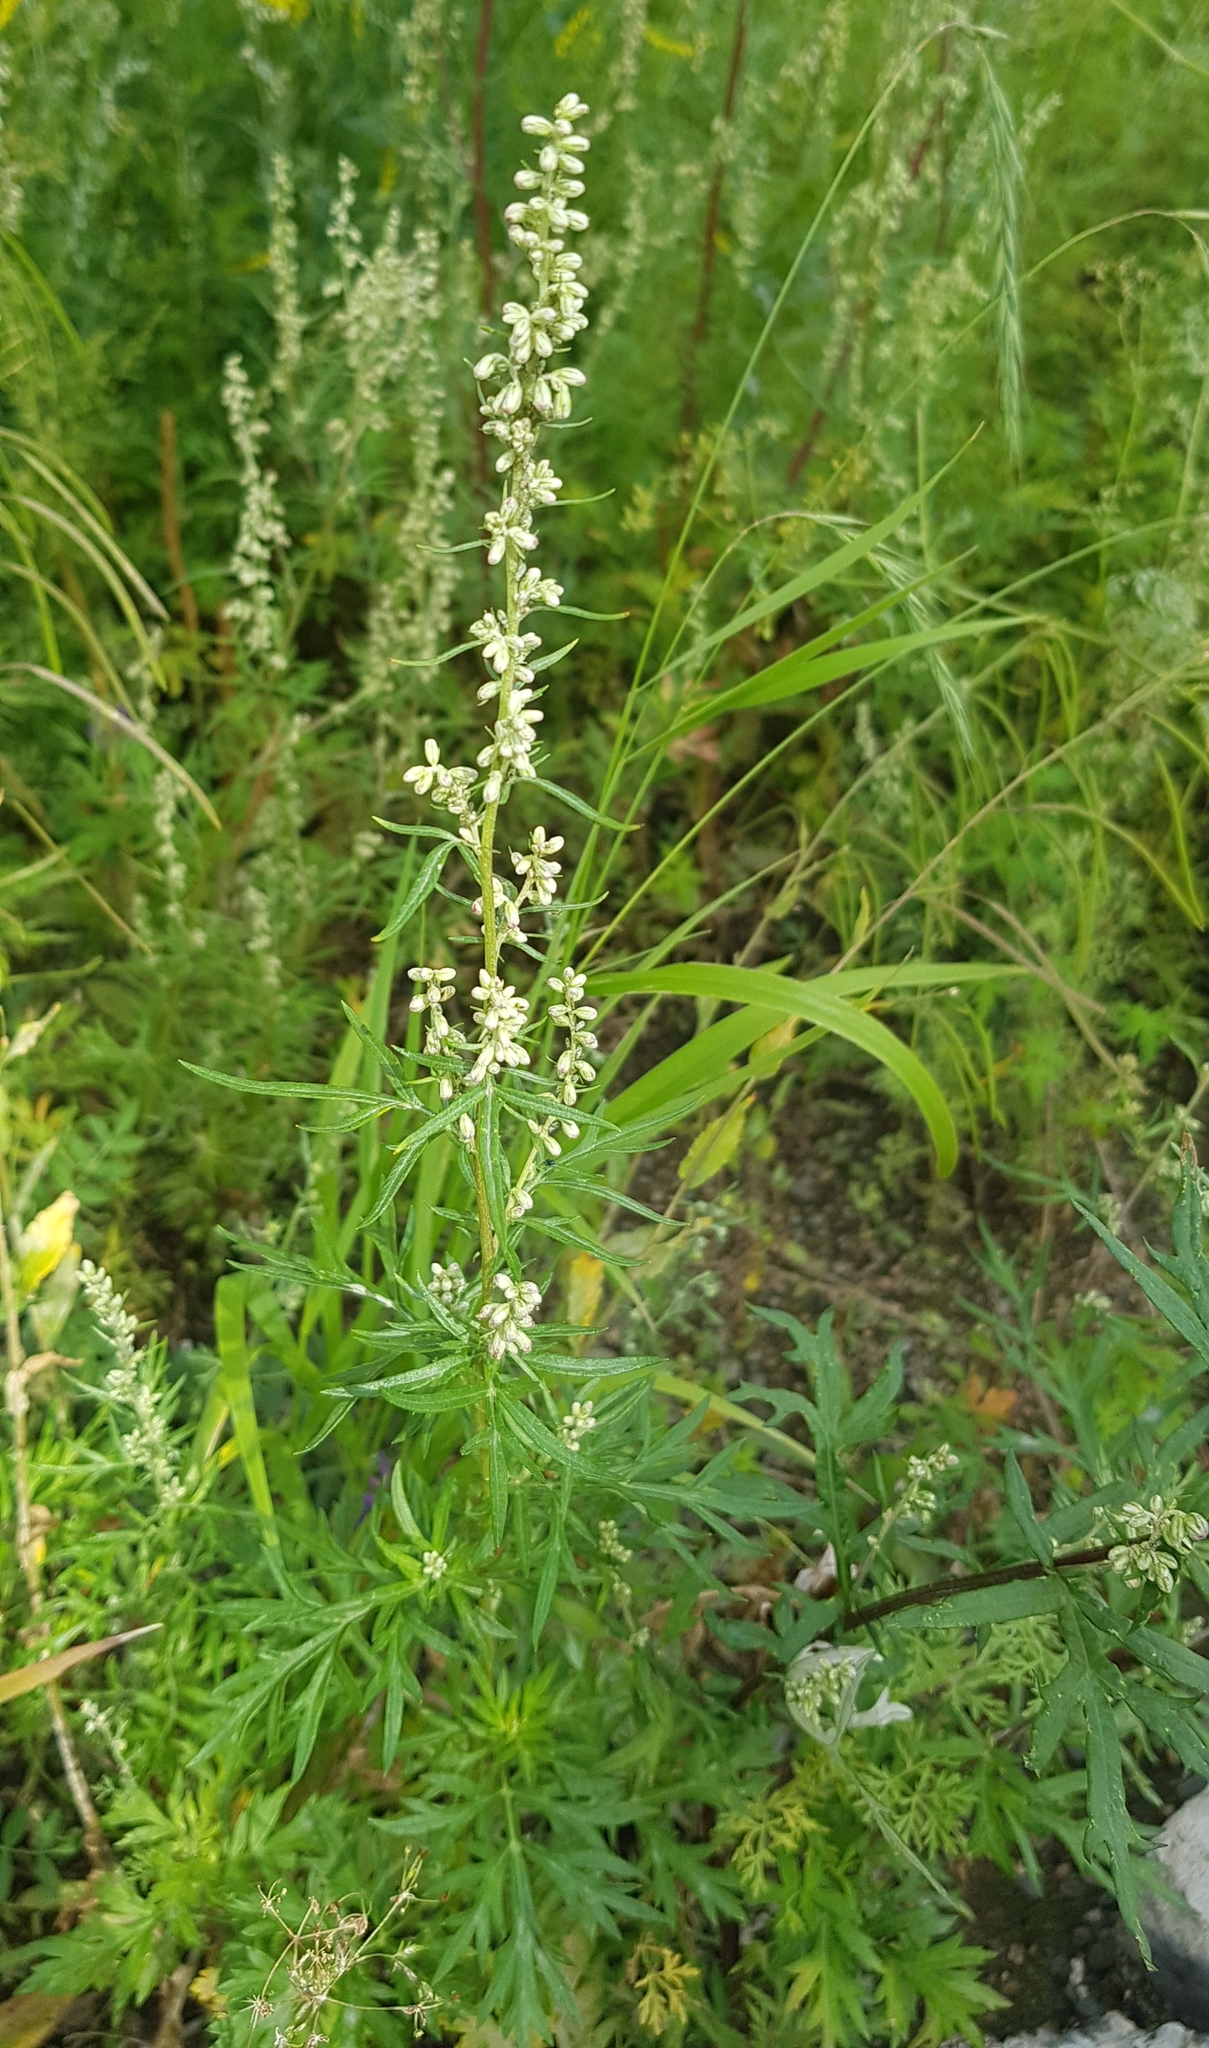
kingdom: Plantae
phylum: Tracheophyta
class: Magnoliopsida
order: Asterales
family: Asteraceae
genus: Artemisia
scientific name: Artemisia vulgaris
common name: Mugwort
